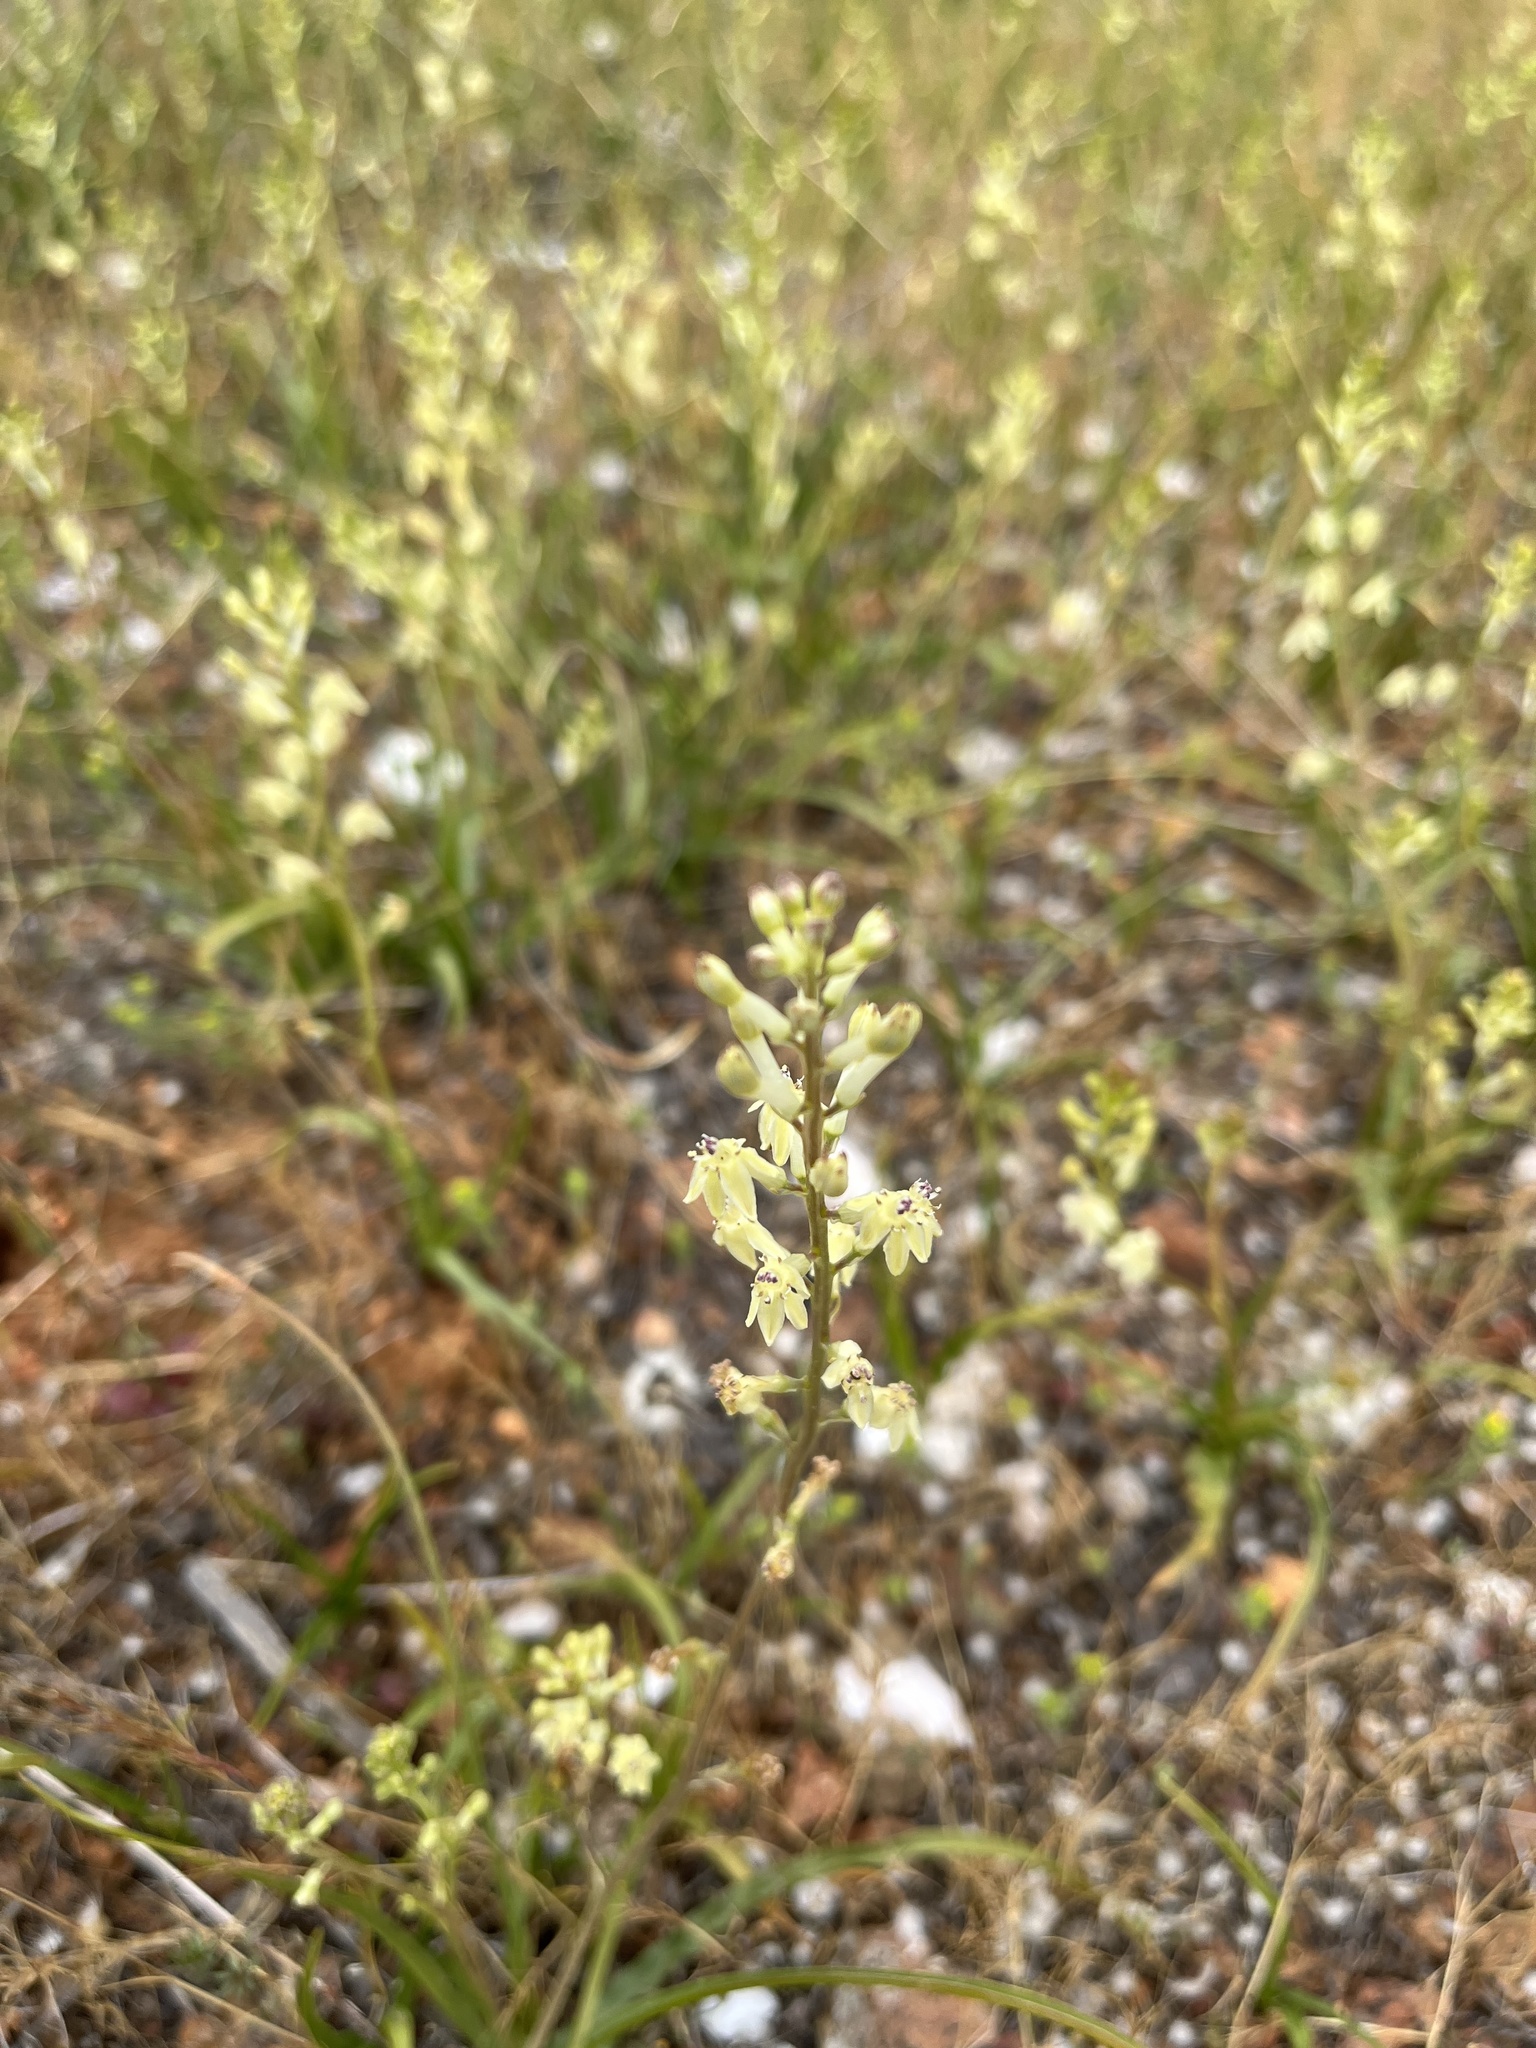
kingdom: Plantae
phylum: Tracheophyta
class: Liliopsida
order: Asparagales
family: Tecophilaeaceae
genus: Odontostomum
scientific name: Odontostomum hartwegii
